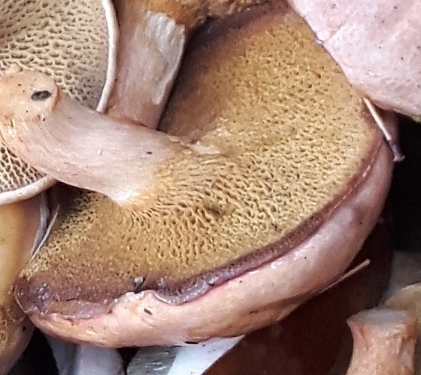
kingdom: Fungi
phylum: Basidiomycota
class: Agaricomycetes
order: Boletales
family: Suillaceae
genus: Suillus
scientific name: Suillus bovinus
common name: Bovine bolete
